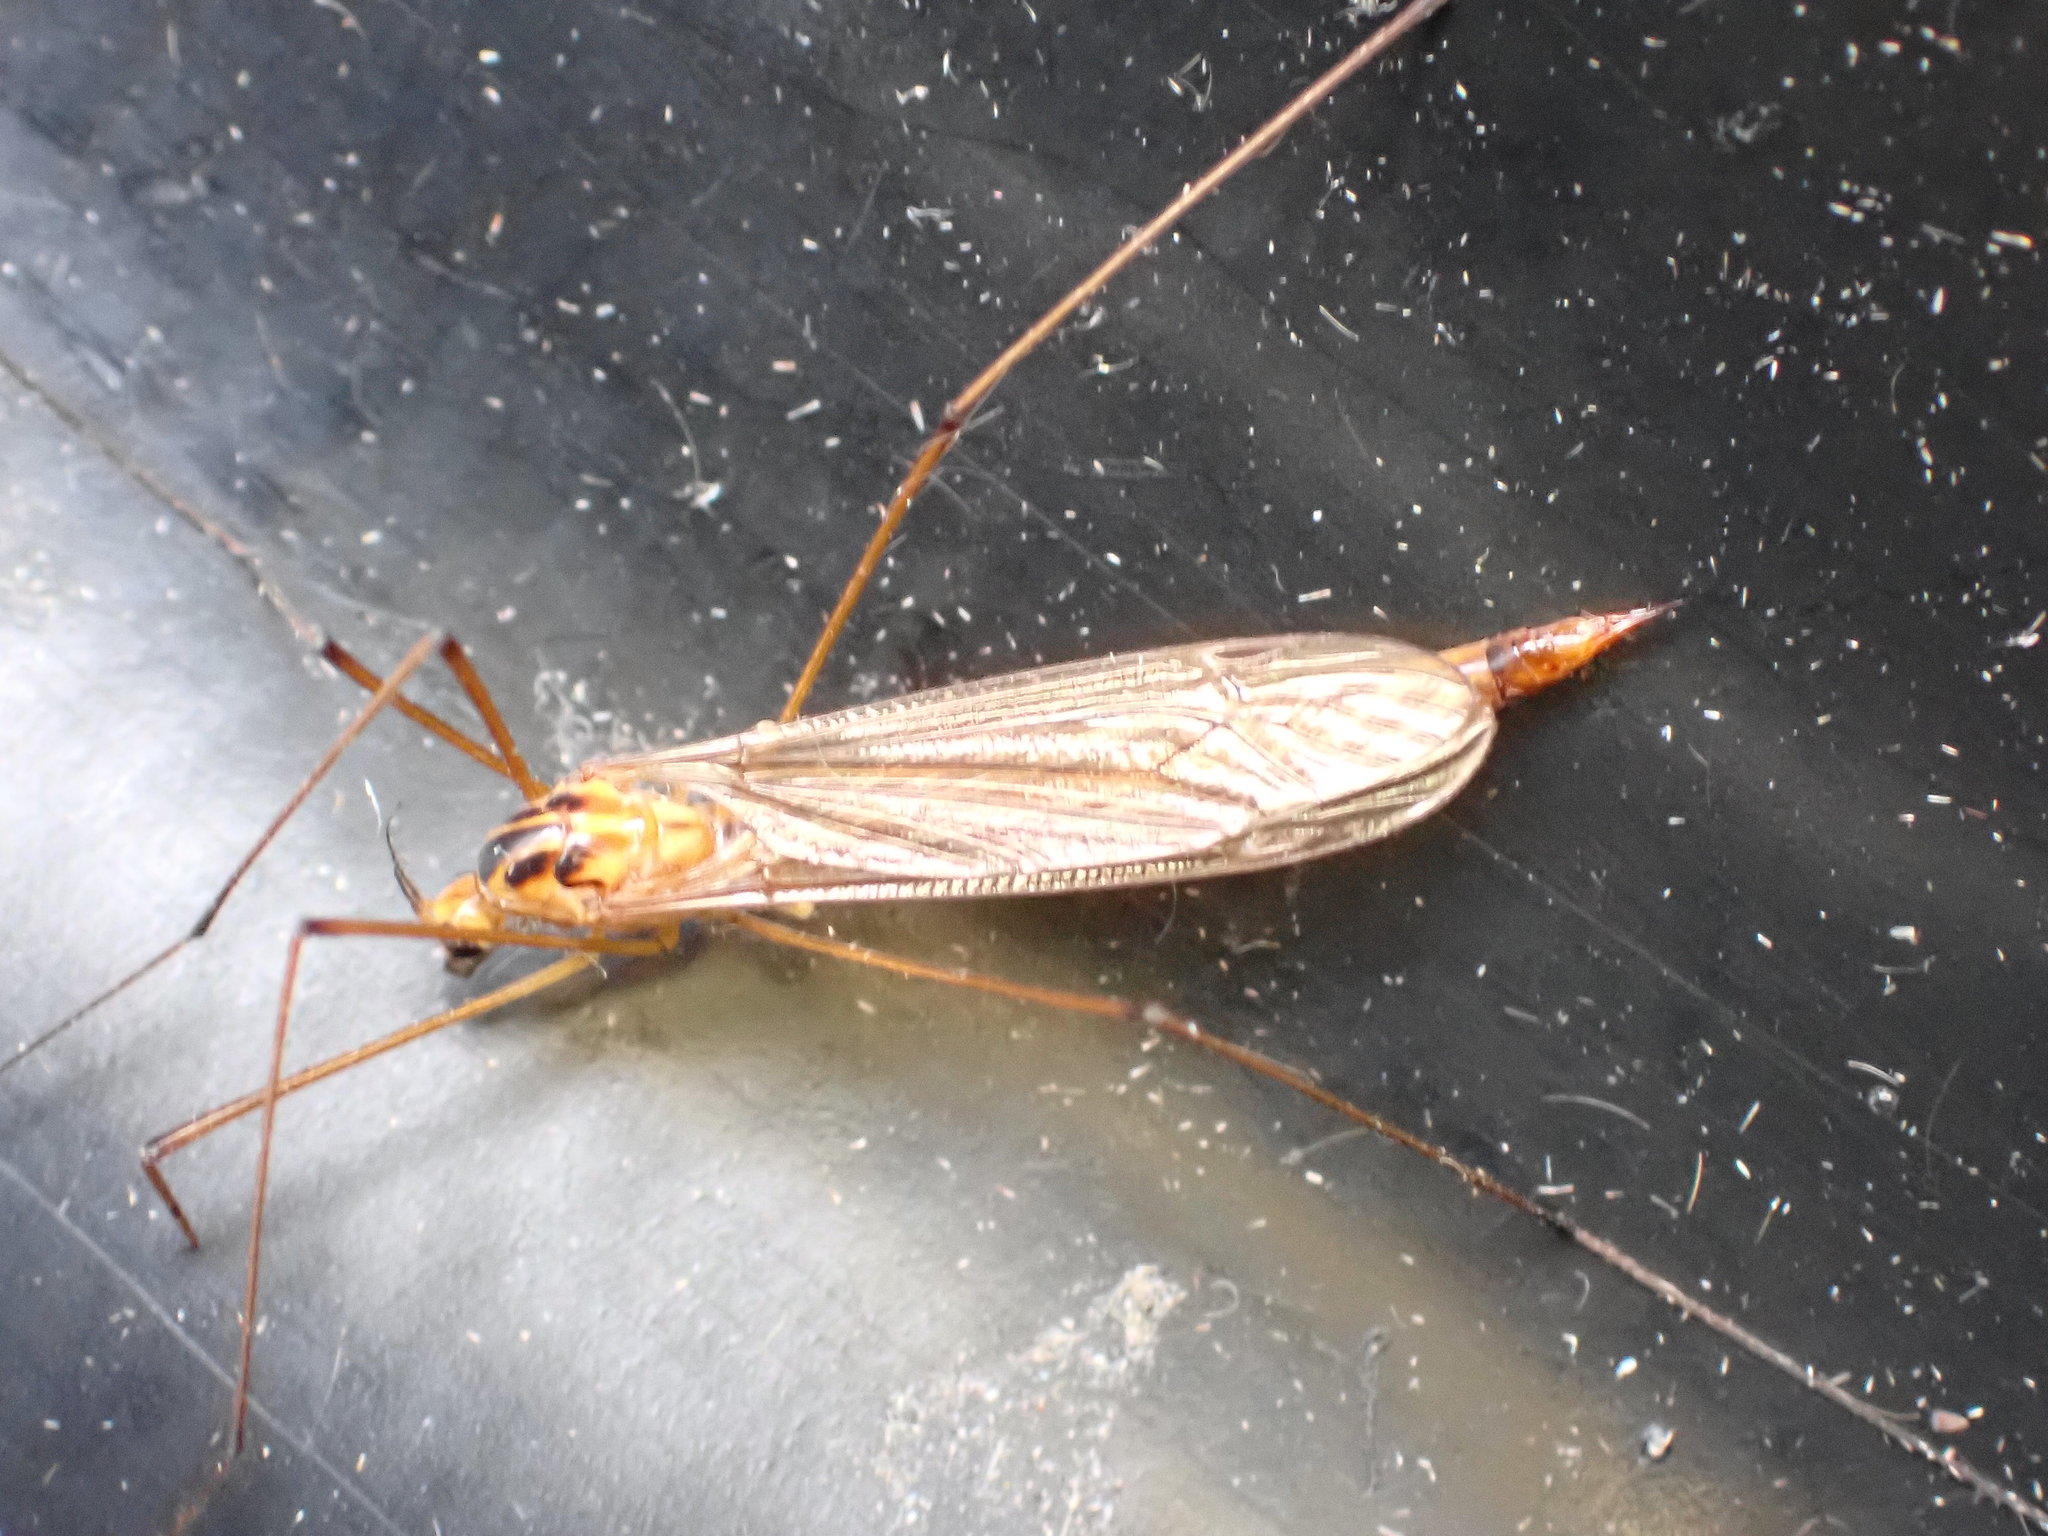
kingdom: Animalia
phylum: Arthropoda
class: Insecta
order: Diptera
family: Tipulidae
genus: Nephrotoma
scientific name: Nephrotoma scurra
